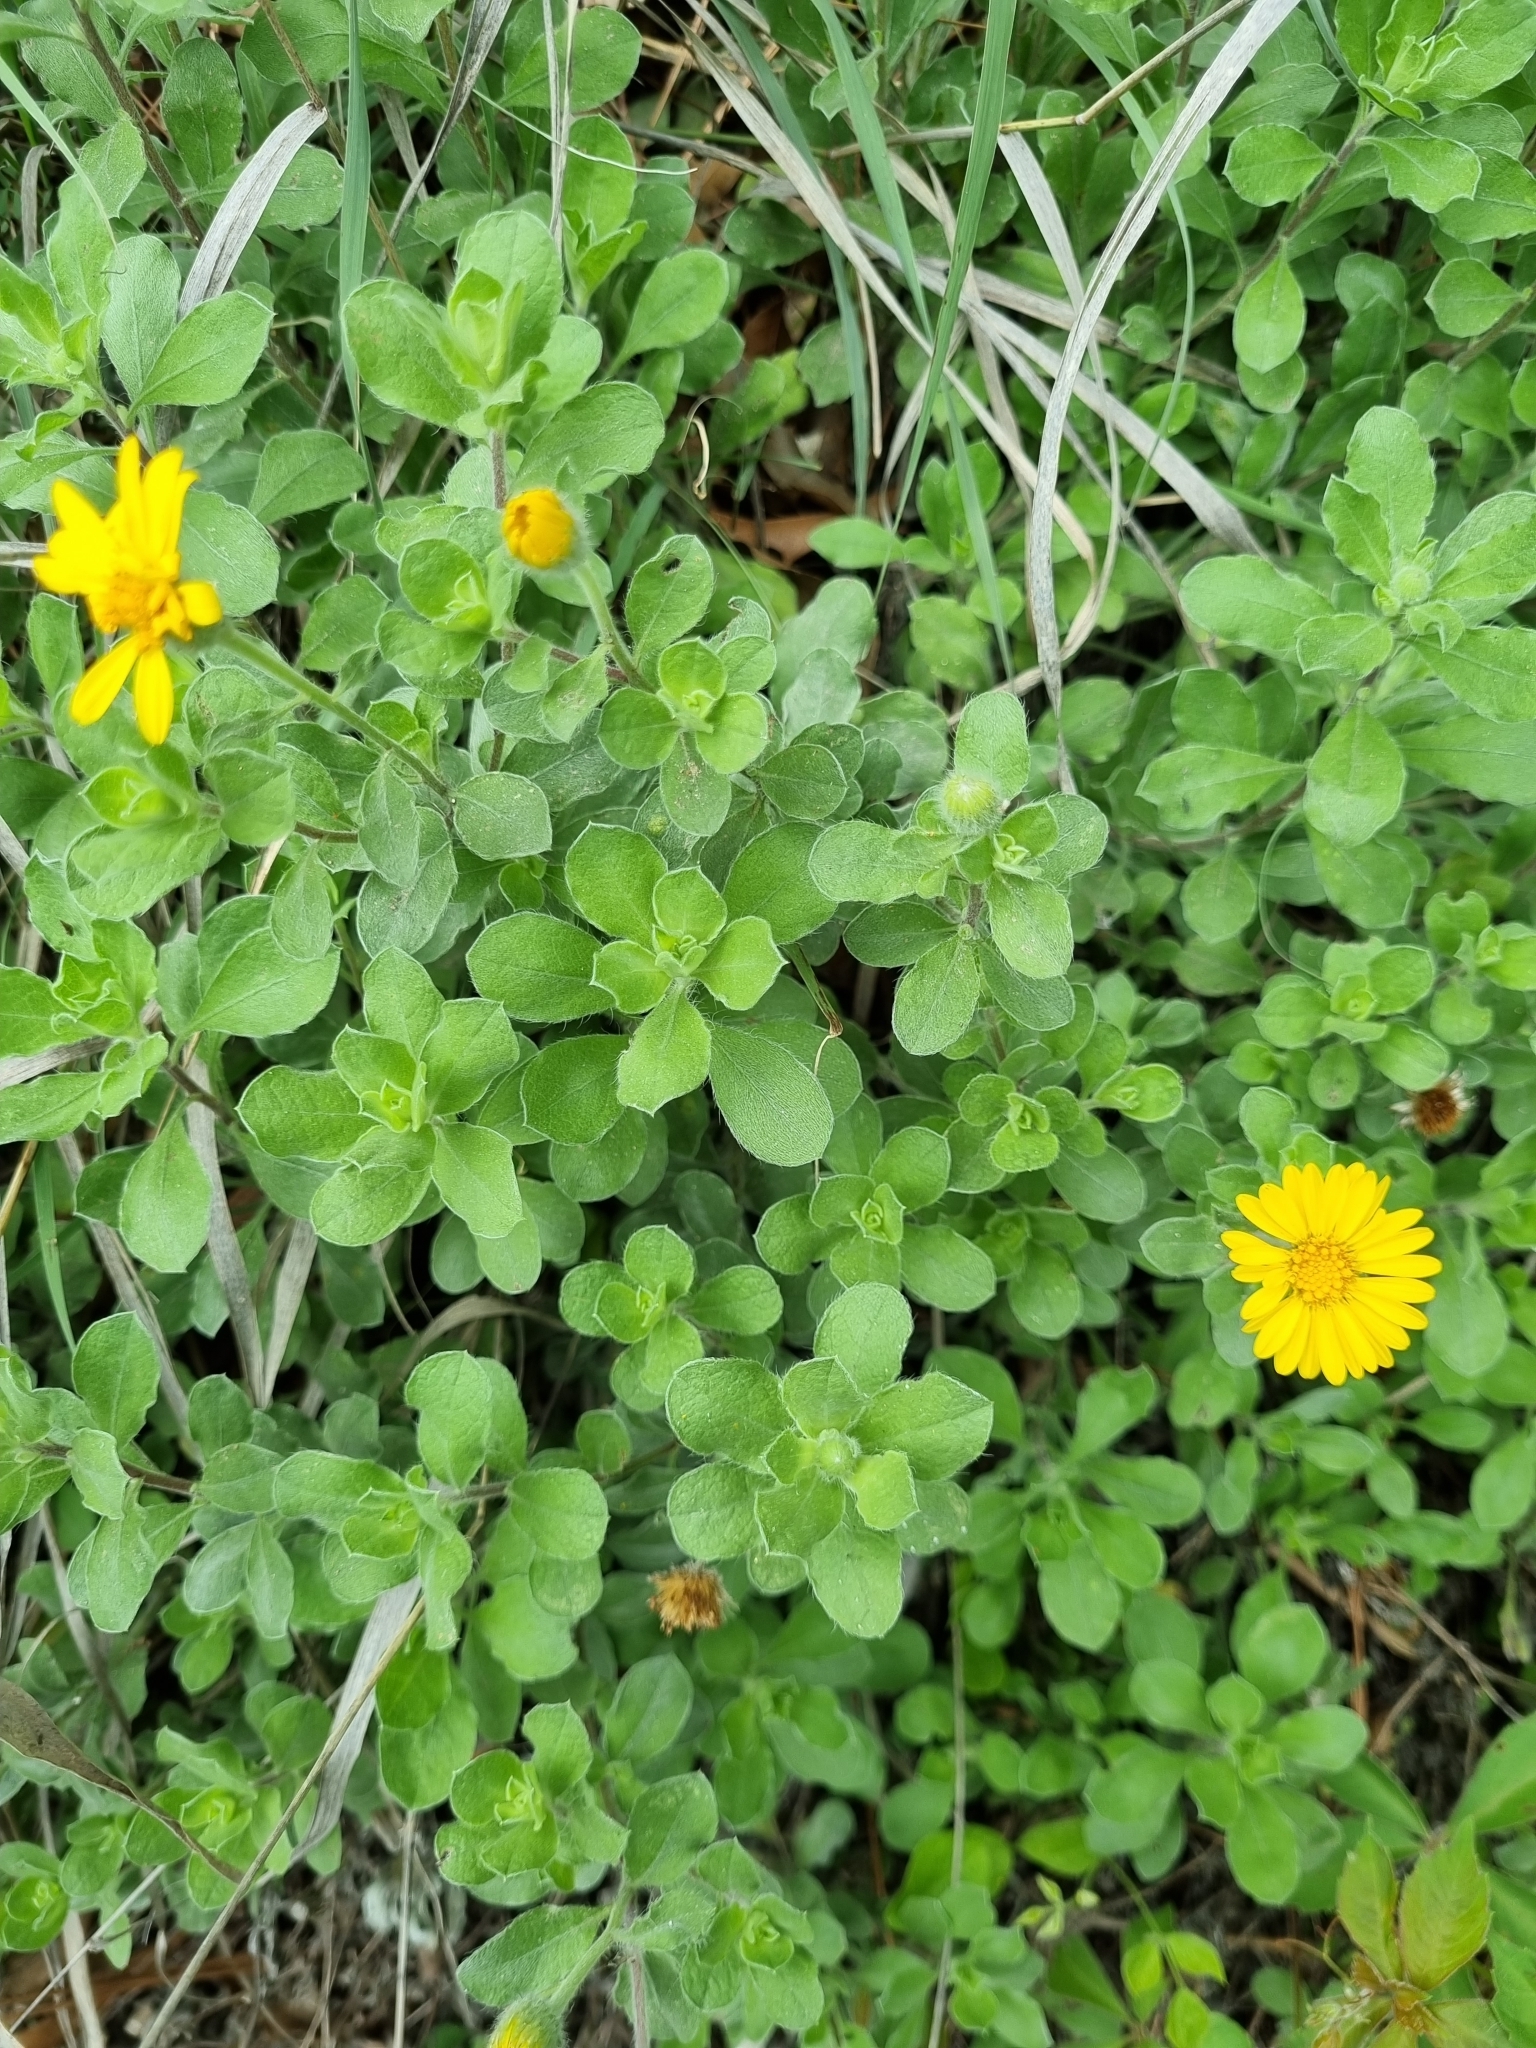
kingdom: Plantae
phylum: Tracheophyta
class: Magnoliopsida
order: Asterales
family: Asteraceae
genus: Heterotheca
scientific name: Heterotheca mucronata
